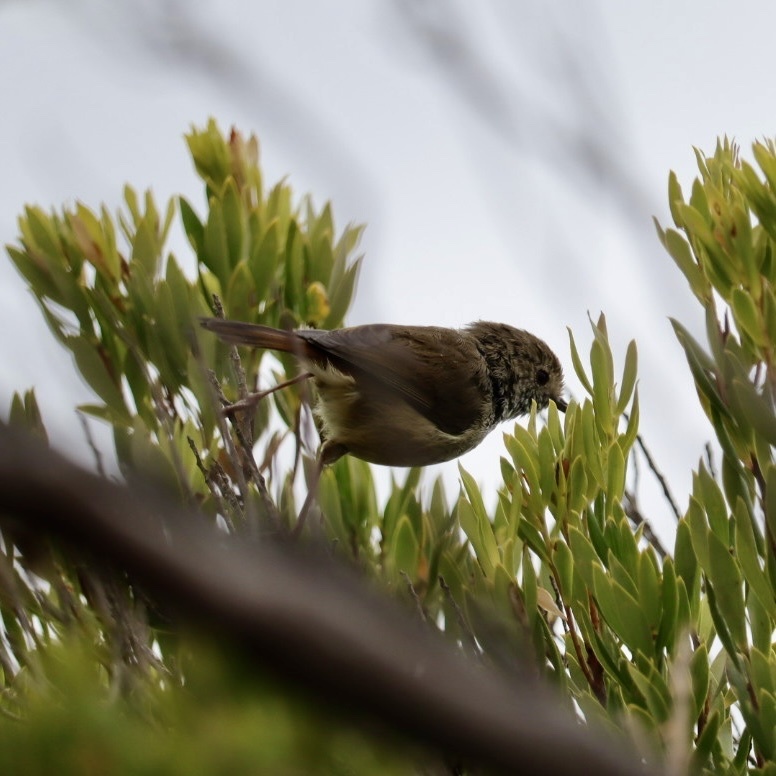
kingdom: Animalia
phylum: Chordata
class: Aves
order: Passeriformes
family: Acanthizidae
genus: Acanthiza
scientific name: Acanthiza pusilla
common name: Brown thornbill
